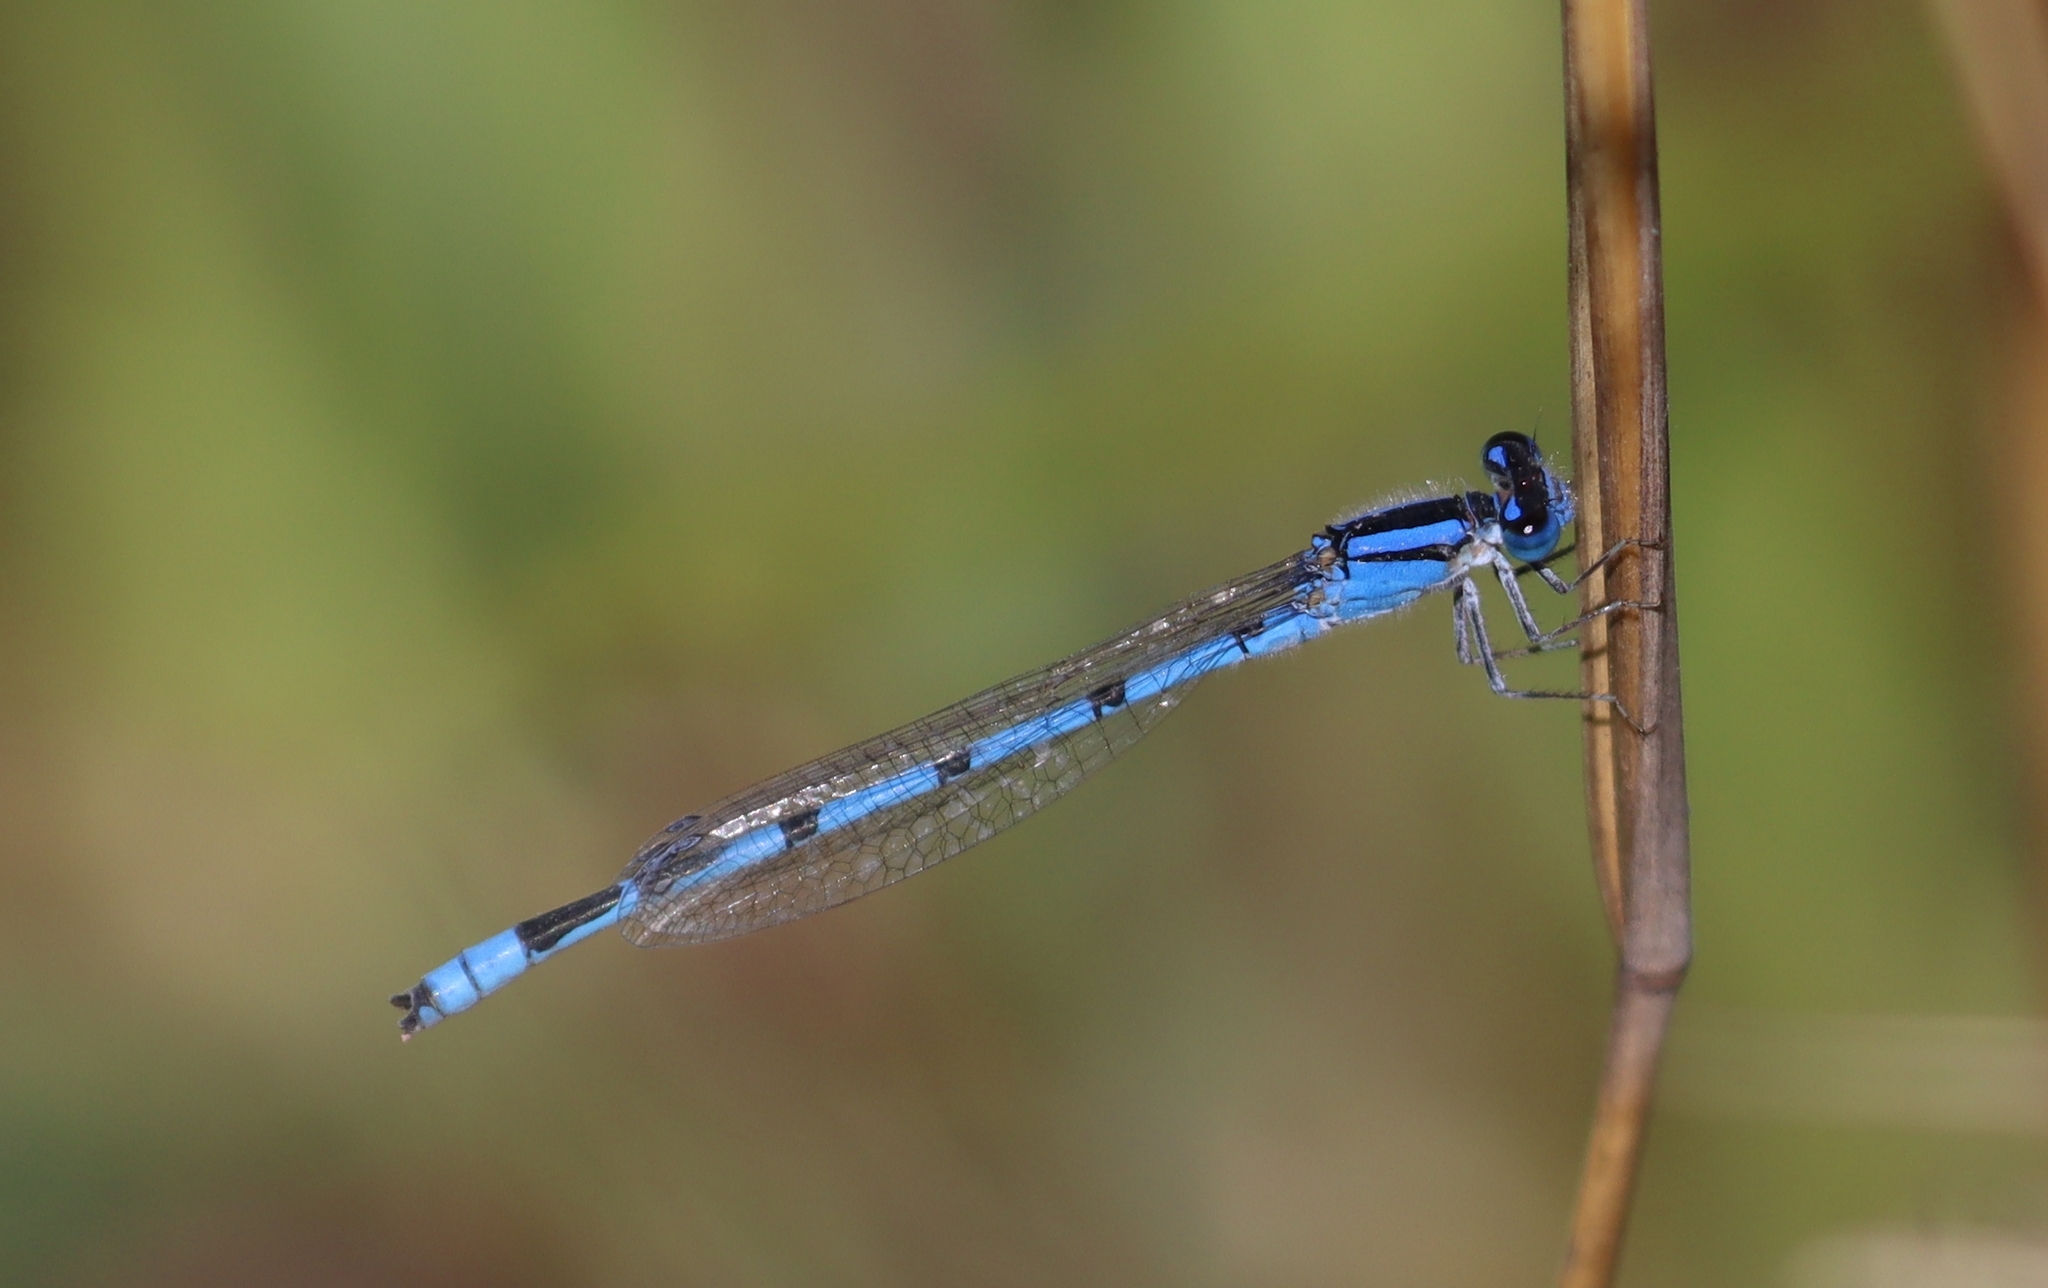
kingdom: Animalia
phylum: Arthropoda
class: Insecta
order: Odonata
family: Coenagrionidae
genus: Enallagma
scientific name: Enallagma civile
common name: Damselfly
